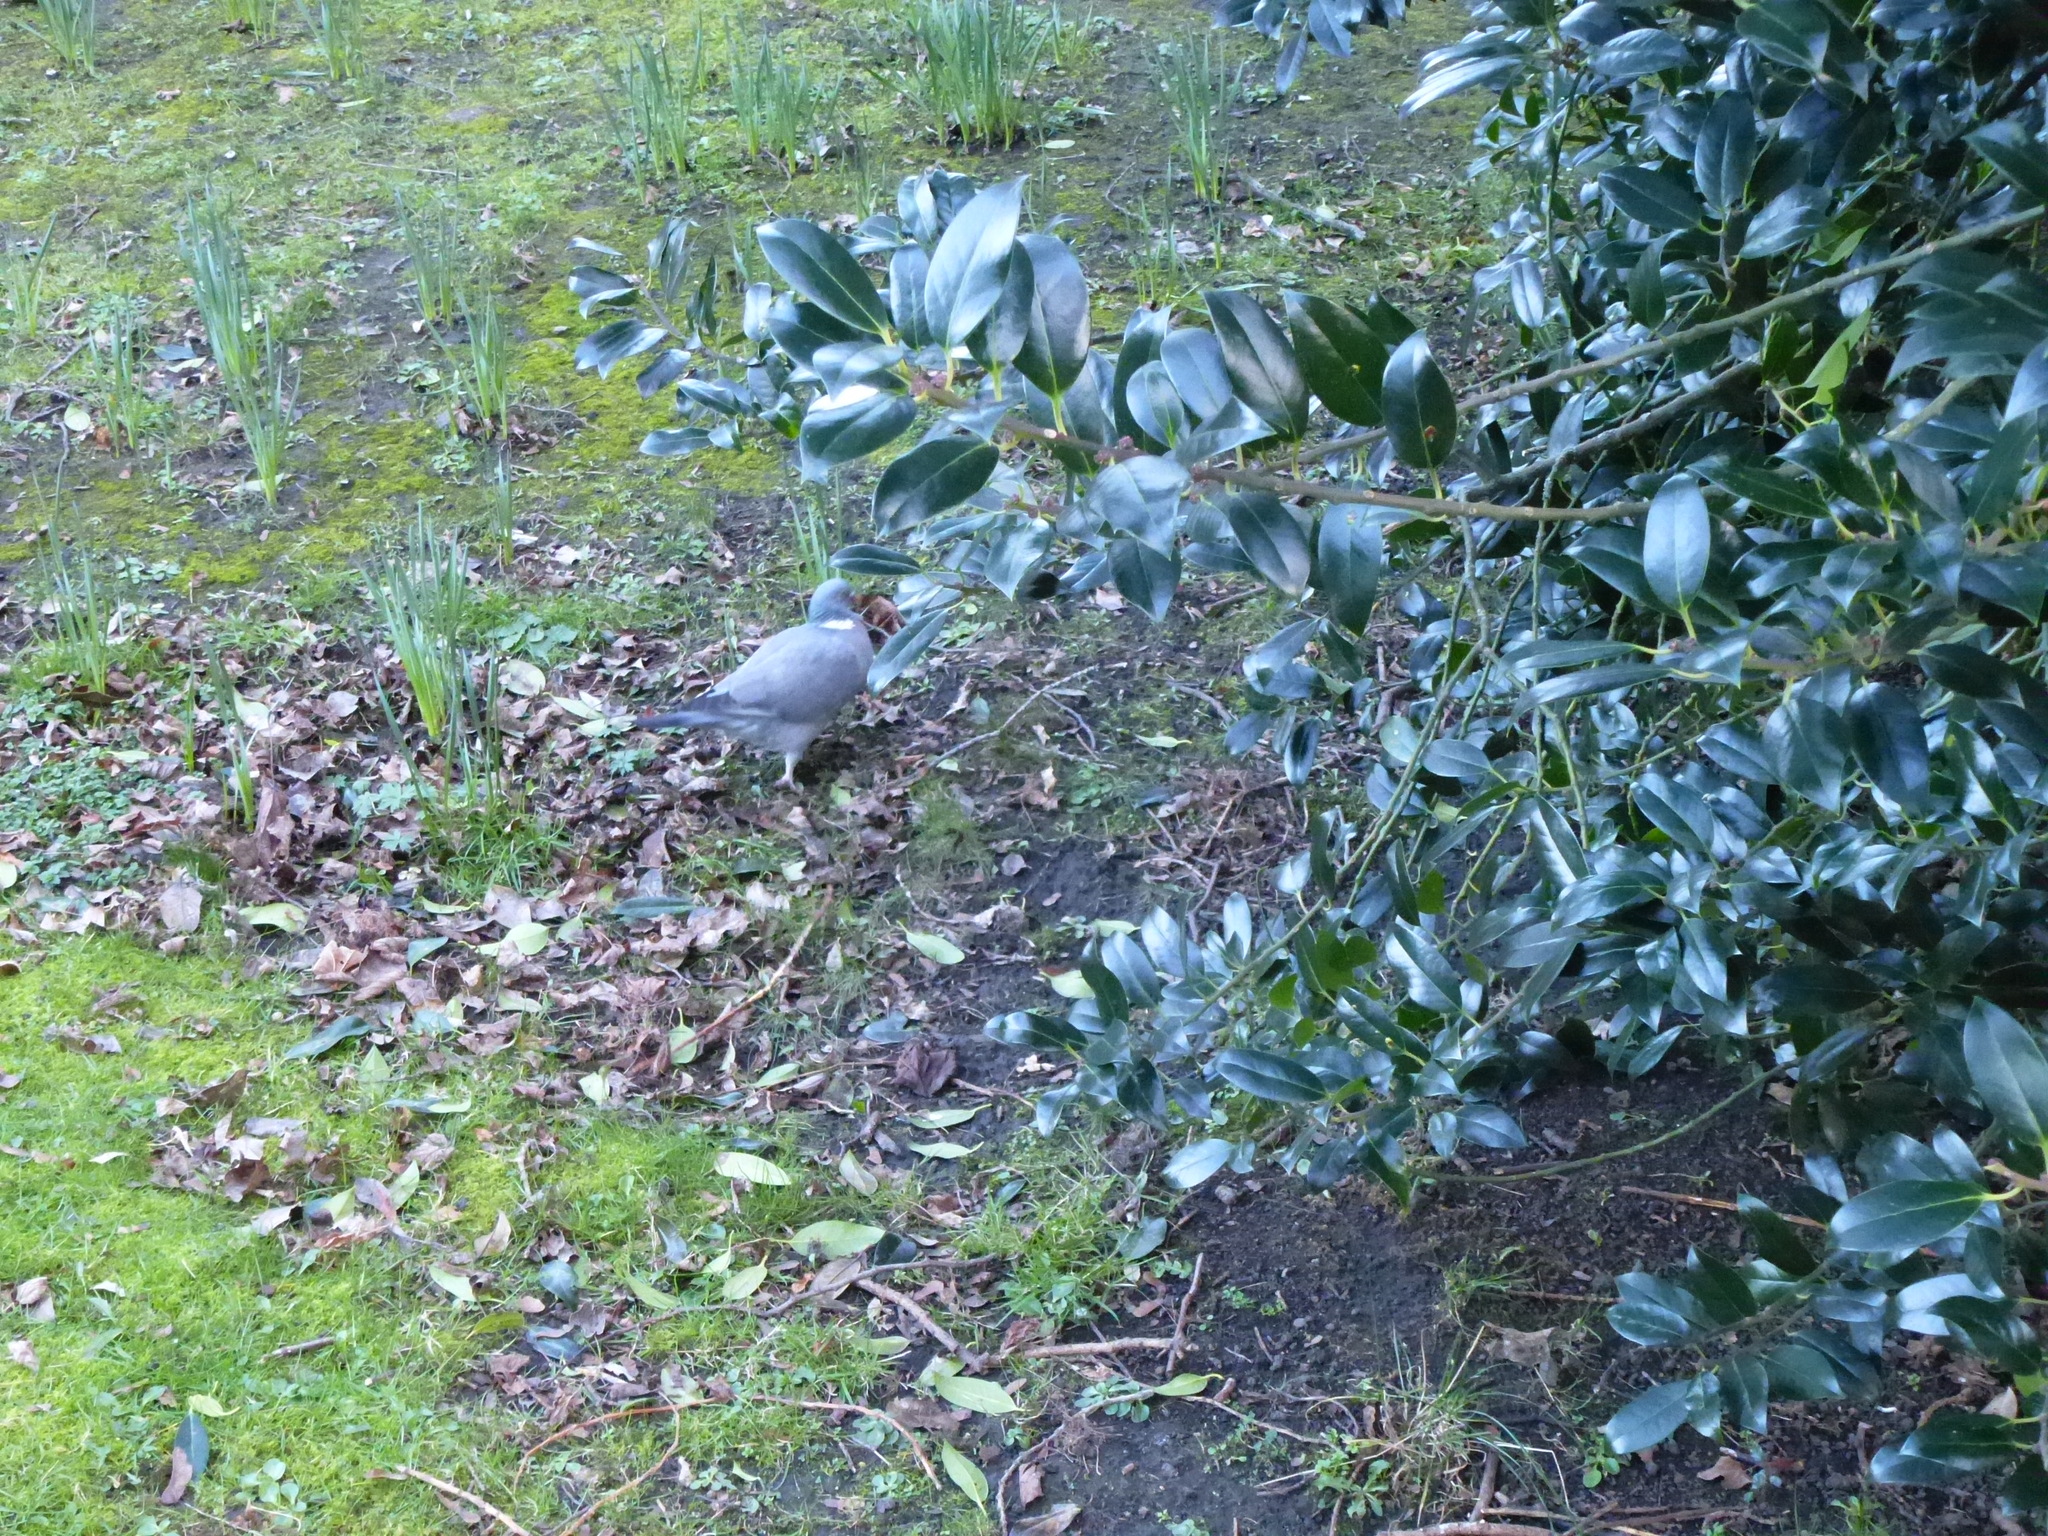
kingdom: Animalia
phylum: Chordata
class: Aves
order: Columbiformes
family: Columbidae
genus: Columba
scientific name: Columba palumbus
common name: Common wood pigeon
